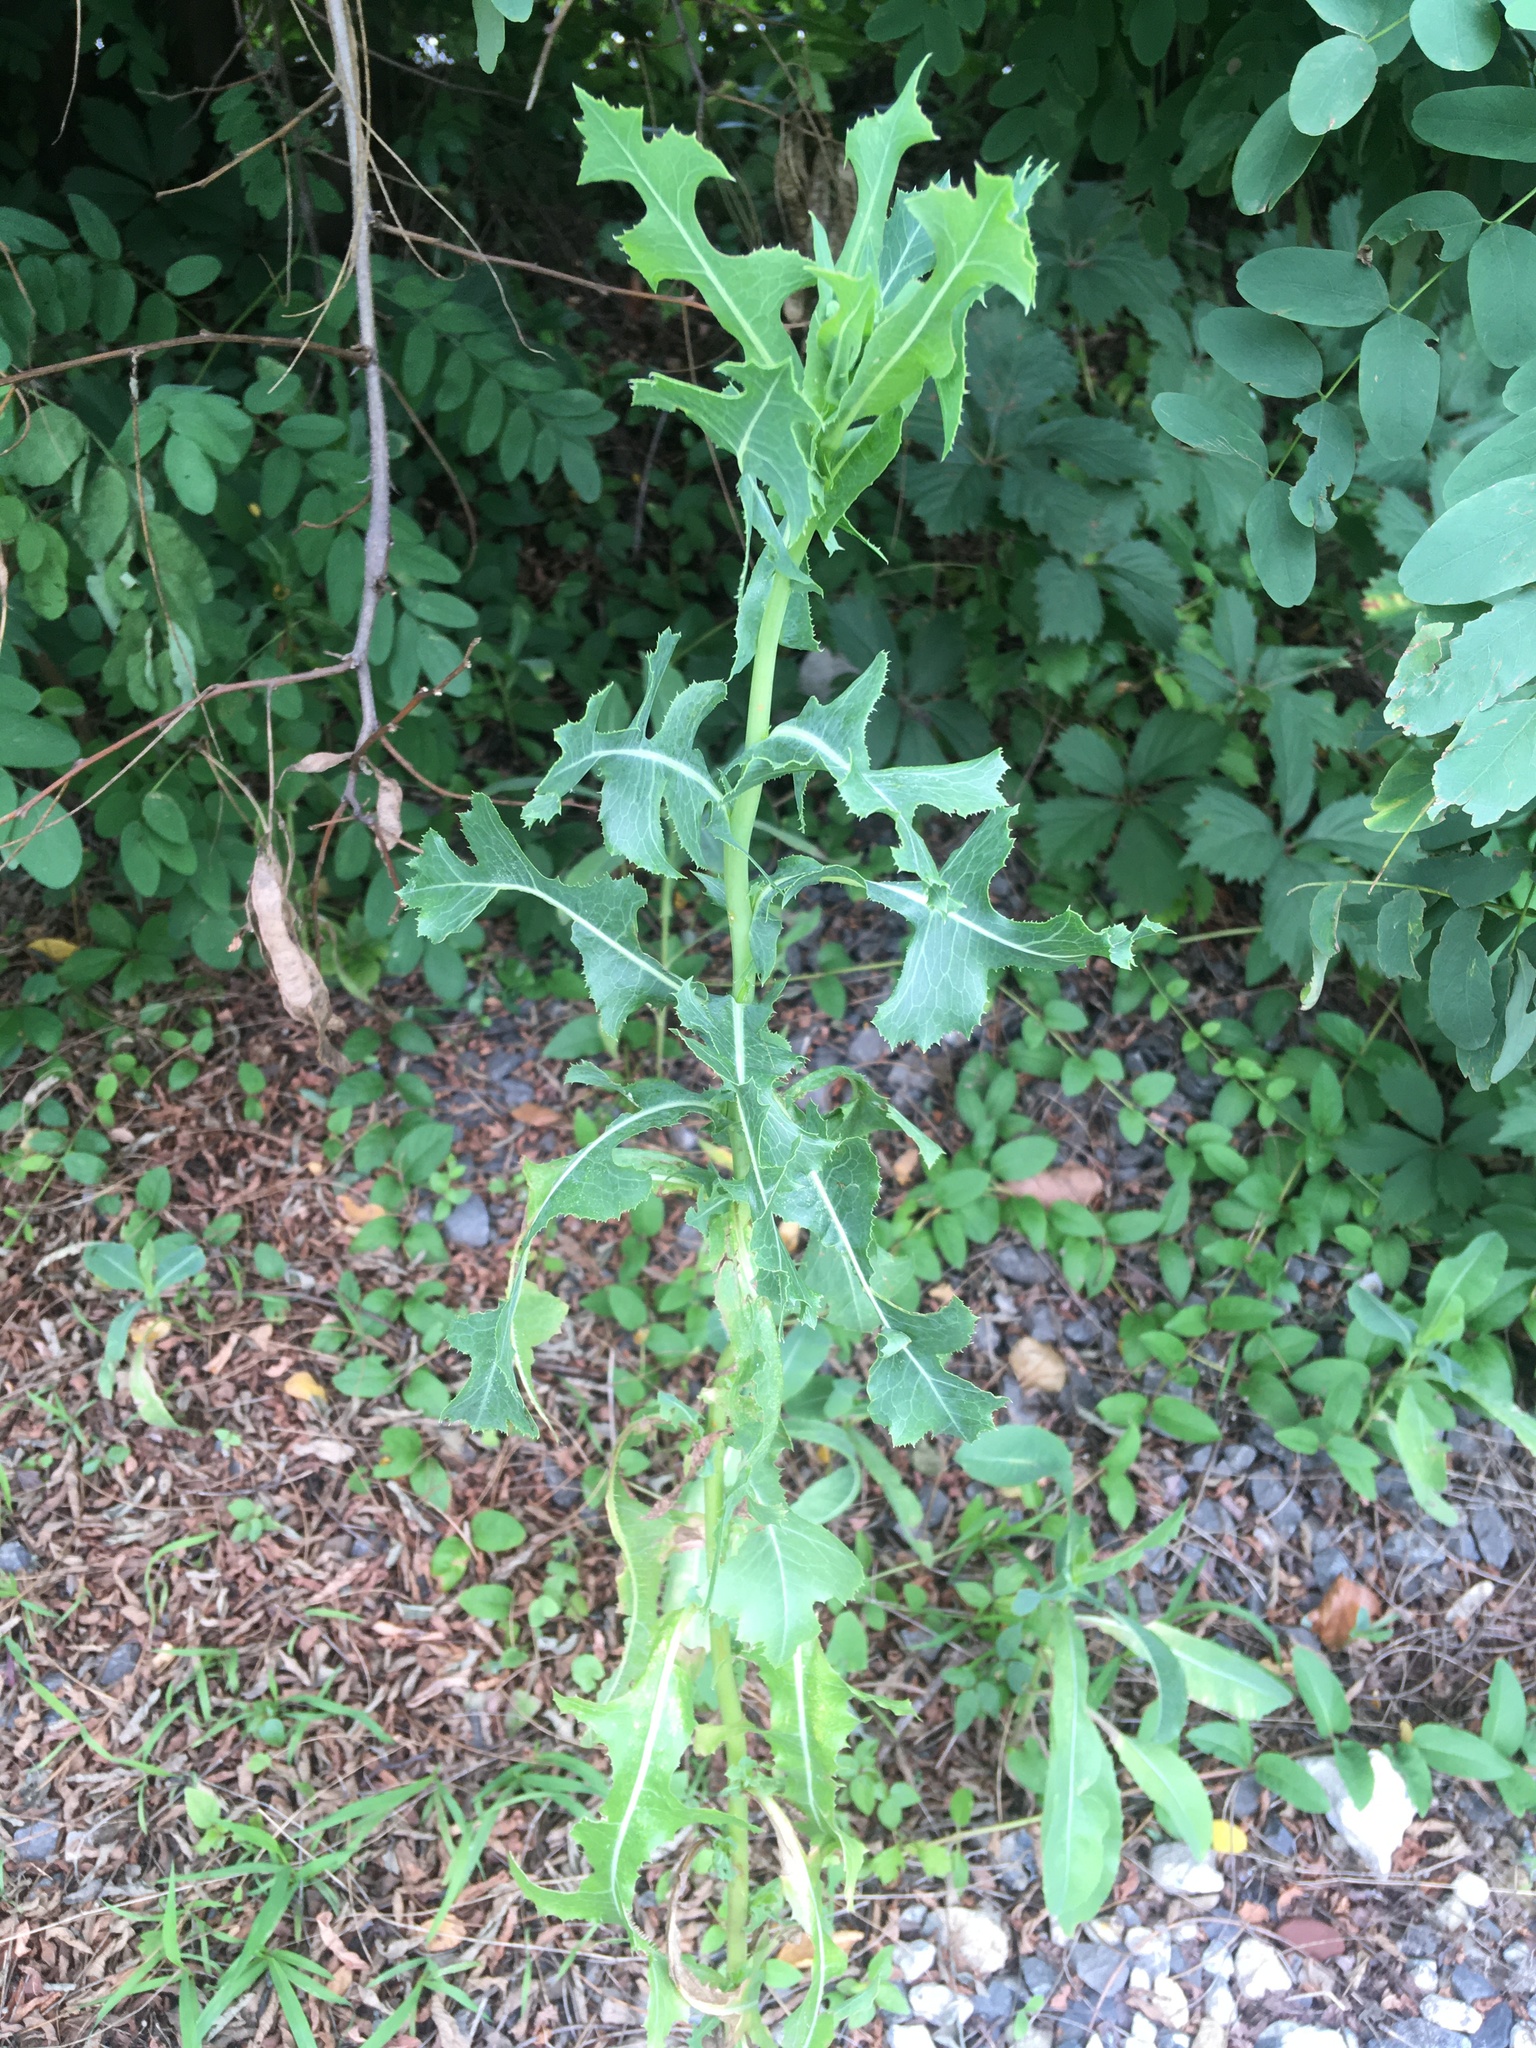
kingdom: Plantae
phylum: Tracheophyta
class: Magnoliopsida
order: Asterales
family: Asteraceae
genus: Lactuca
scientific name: Lactuca serriola
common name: Prickly lettuce
